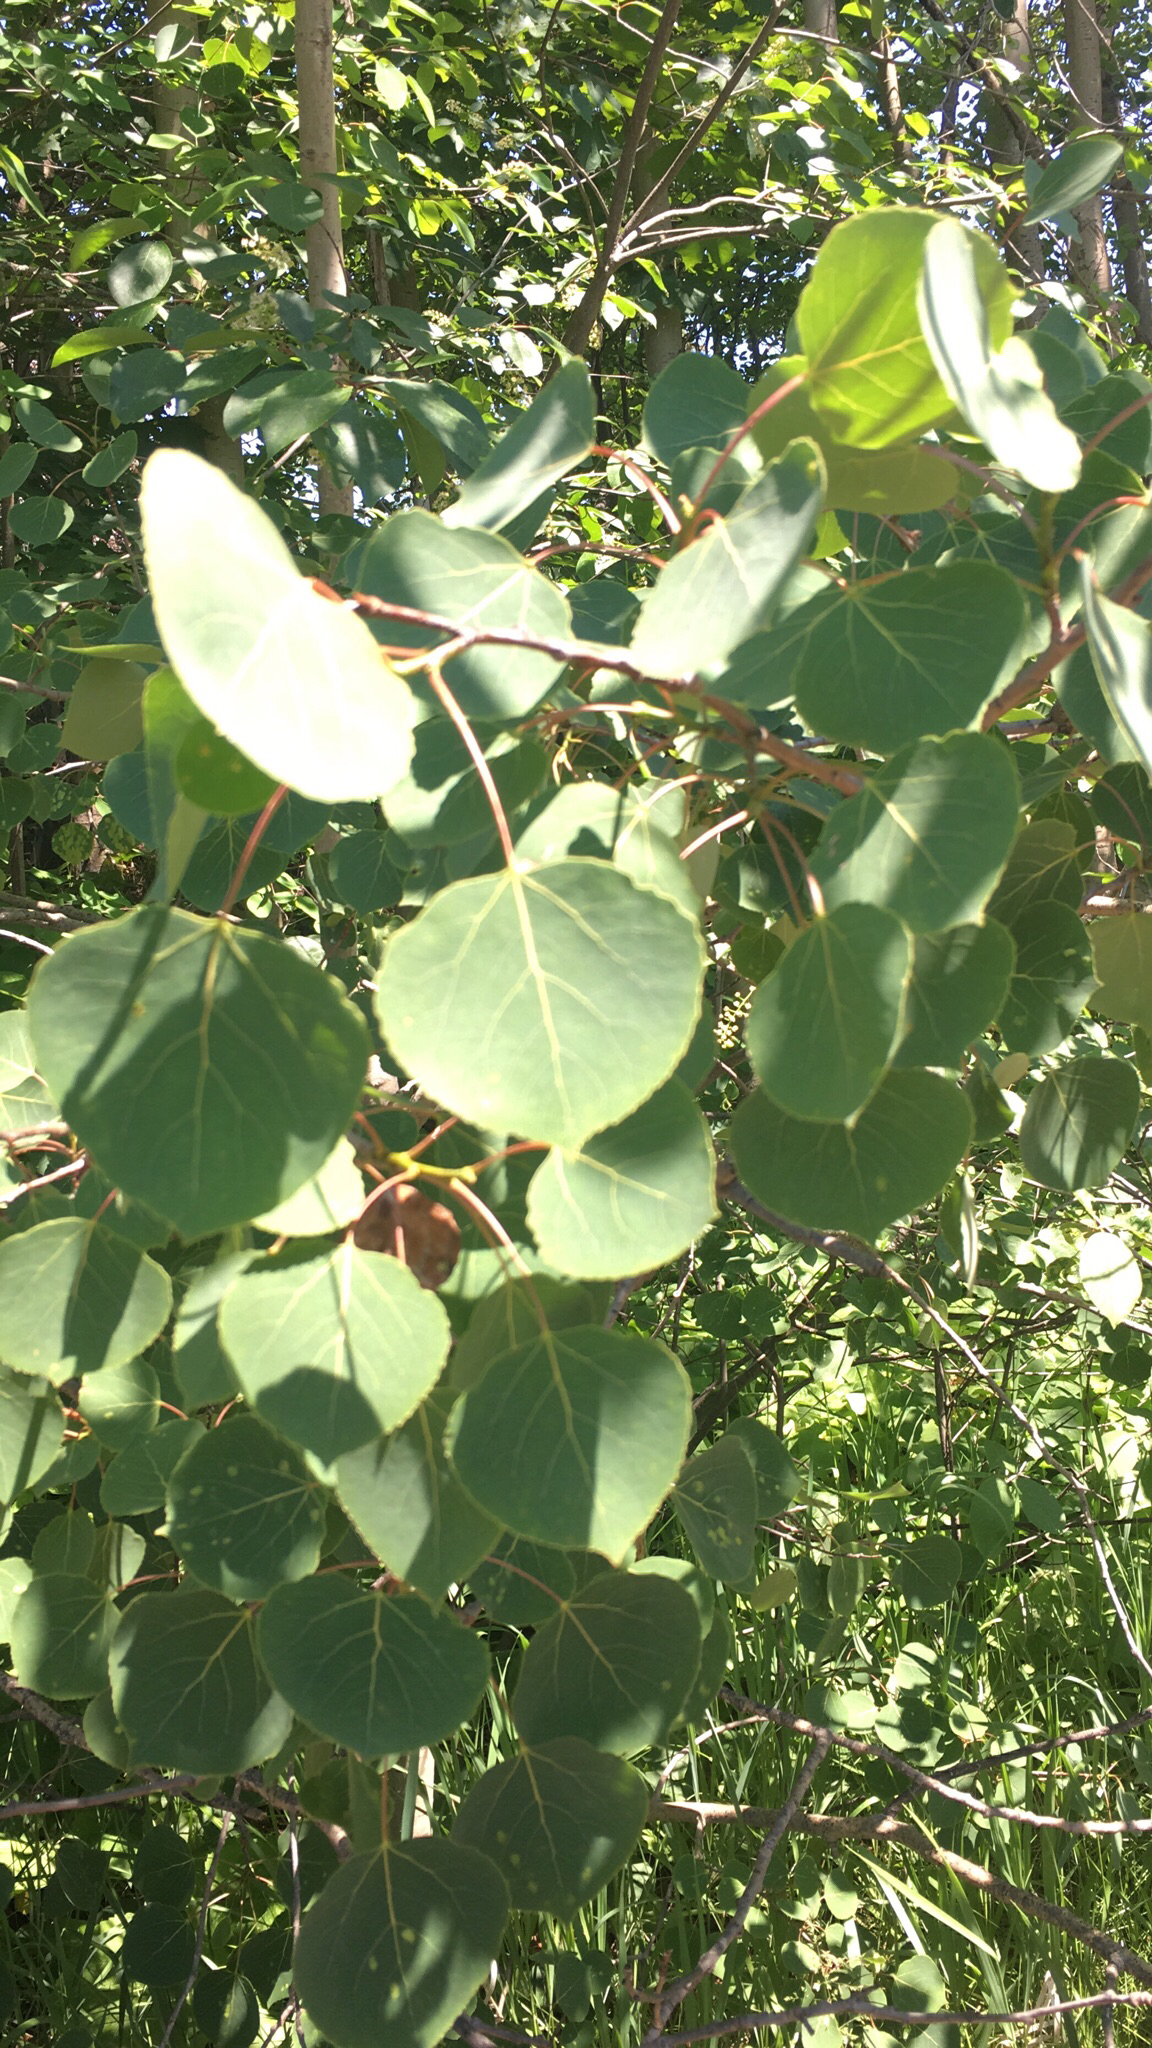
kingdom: Plantae
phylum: Tracheophyta
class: Magnoliopsida
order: Malpighiales
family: Salicaceae
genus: Populus
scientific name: Populus tremuloides
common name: Quaking aspen
